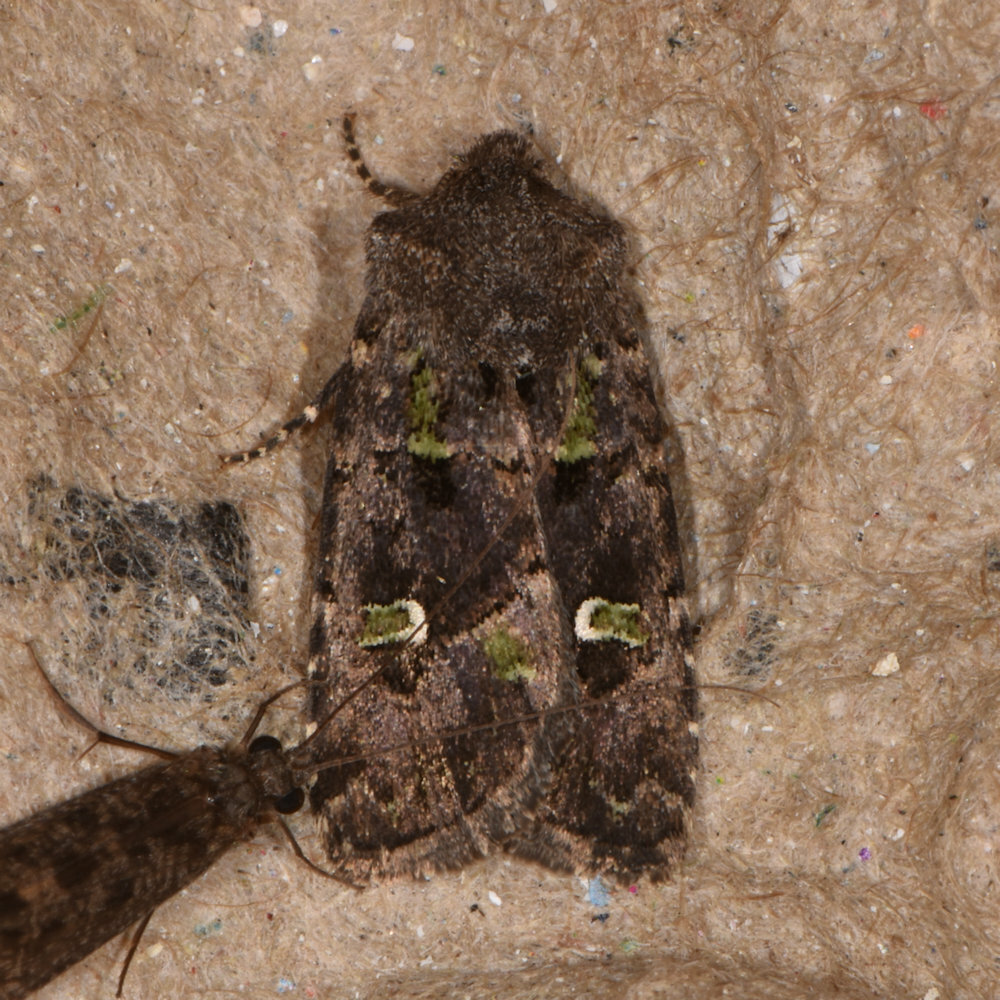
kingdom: Animalia
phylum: Arthropoda
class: Insecta
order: Lepidoptera
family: Noctuidae
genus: Lacinipolia
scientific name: Lacinipolia renigera
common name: Kidney-spotted minor
